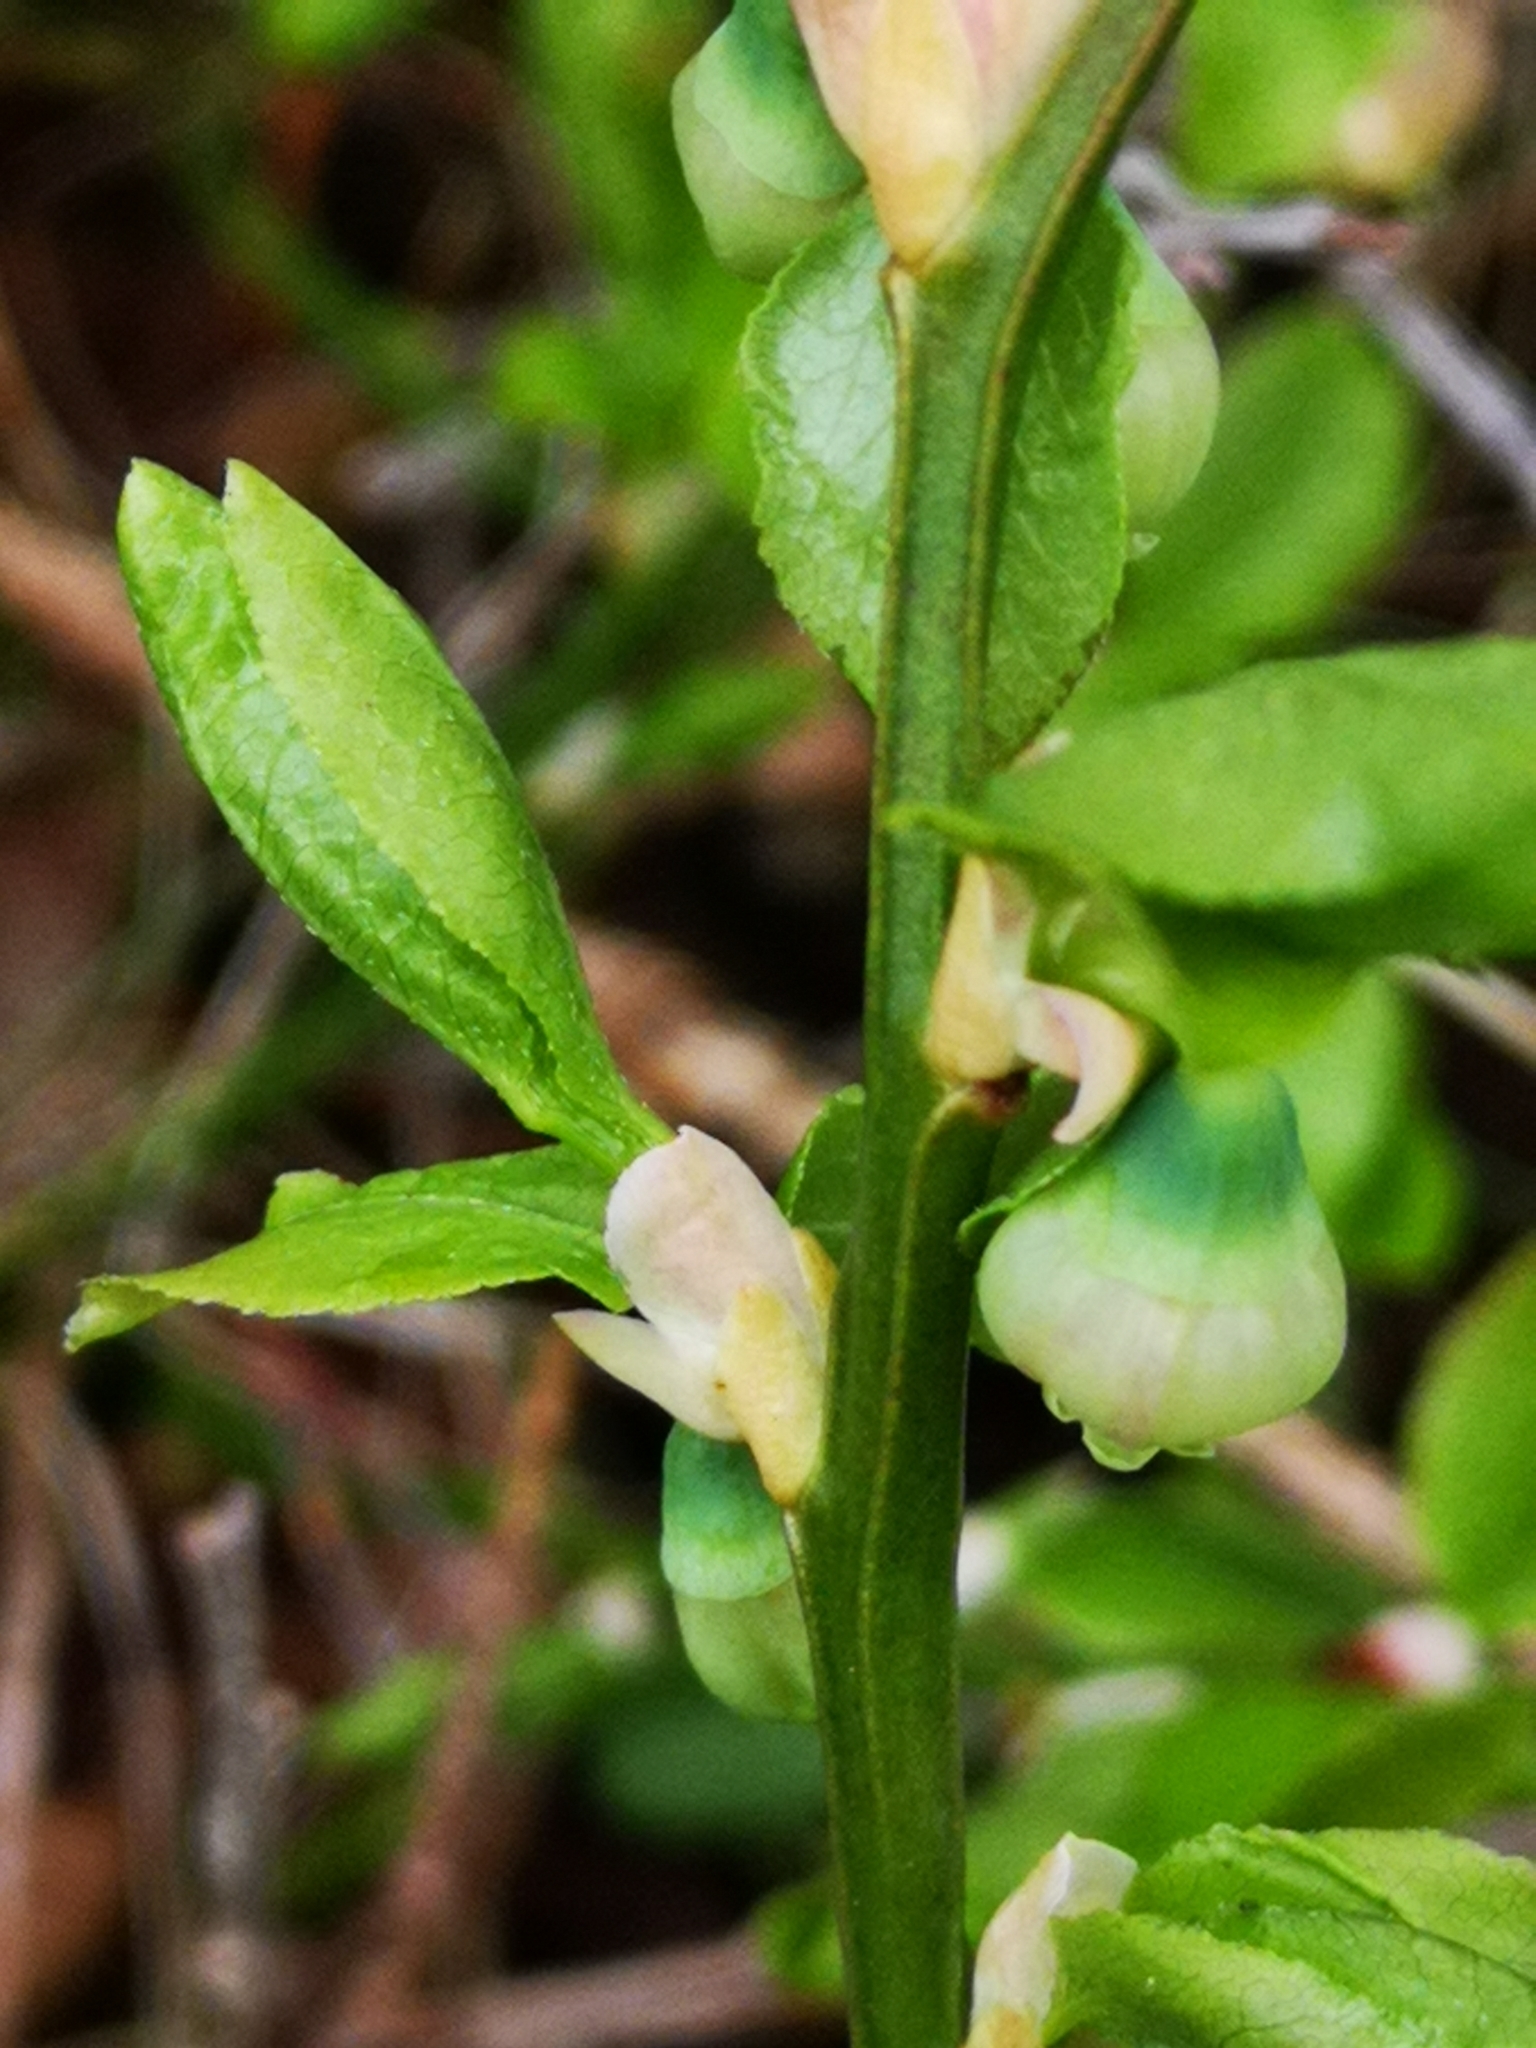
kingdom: Plantae
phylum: Tracheophyta
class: Magnoliopsida
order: Ericales
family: Ericaceae
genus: Vaccinium
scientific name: Vaccinium myrtillus
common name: Bilberry
